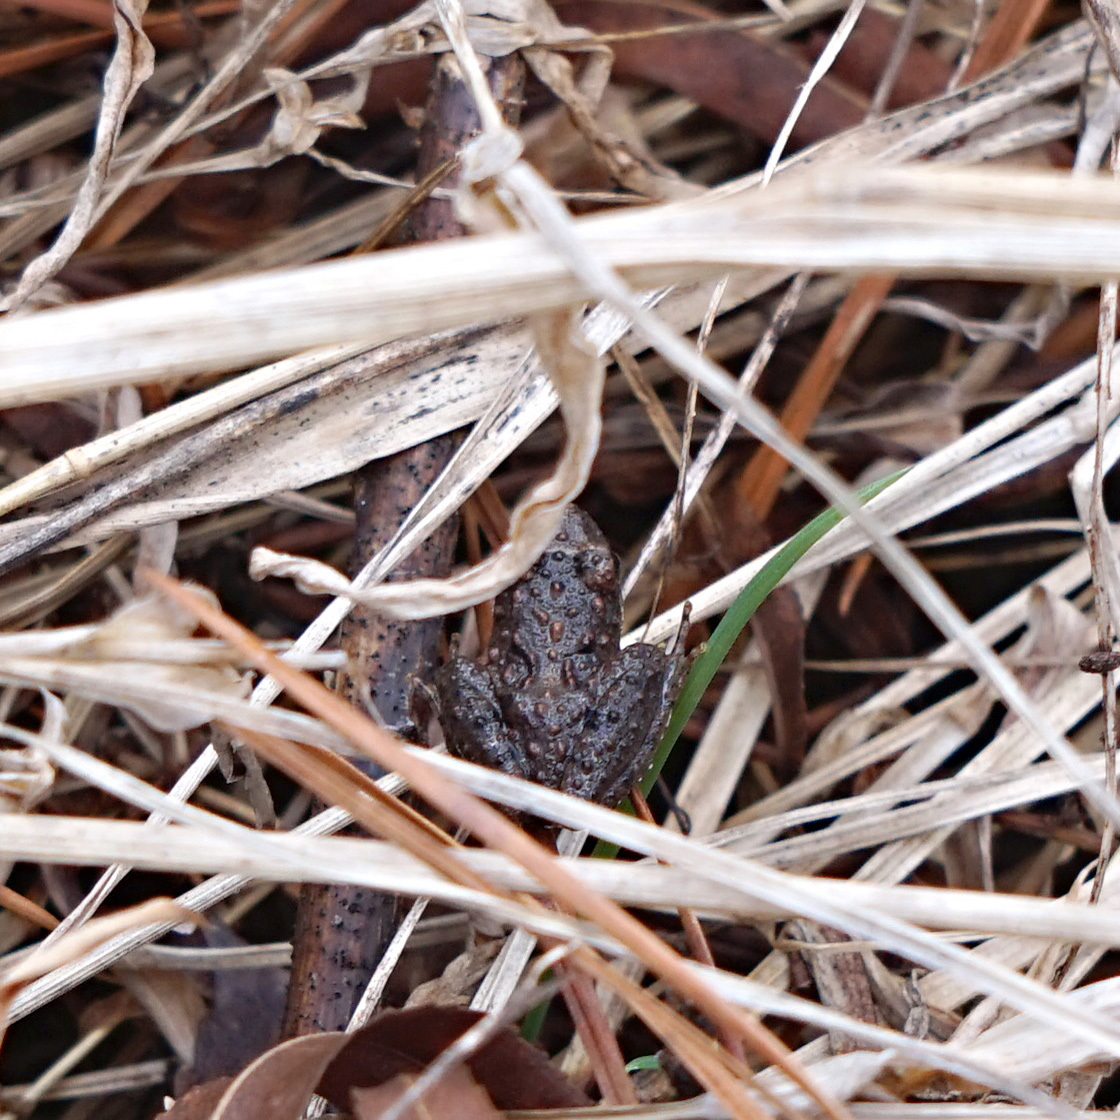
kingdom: Animalia
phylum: Chordata
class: Amphibia
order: Anura
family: Hylidae
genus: Acris
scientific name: Acris crepitans
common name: Northern cricket frog
